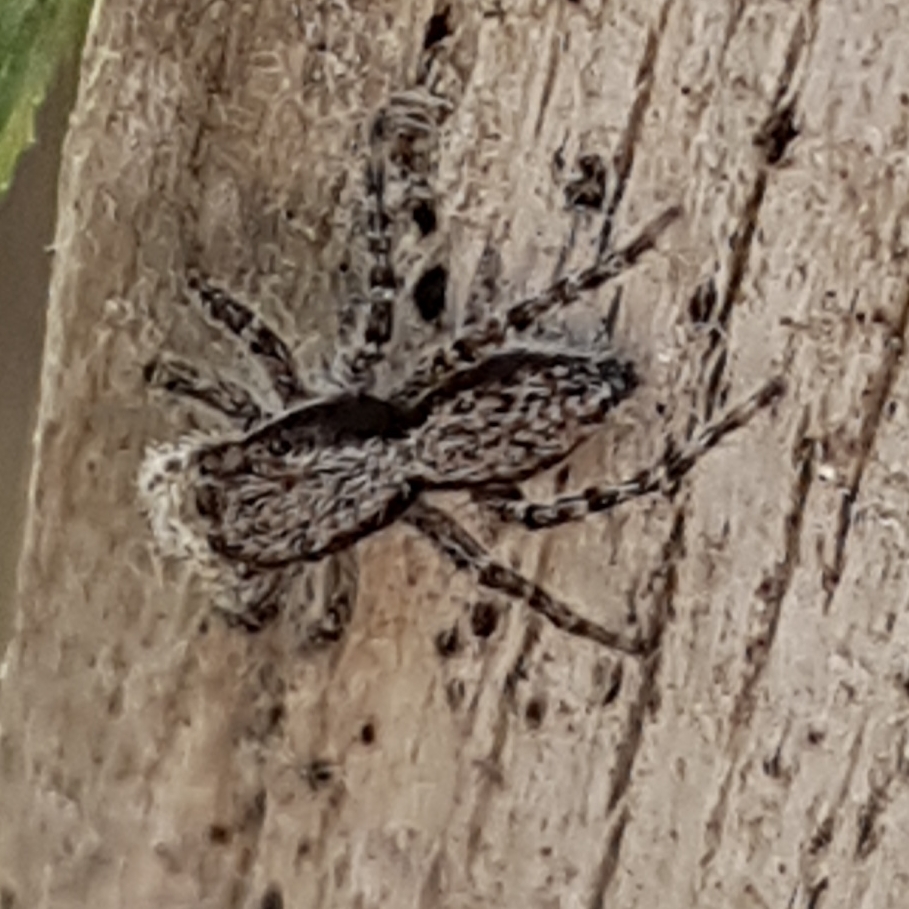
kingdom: Animalia
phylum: Arthropoda
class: Arachnida
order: Araneae
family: Salticidae
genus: Menemerus
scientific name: Menemerus taeniatus
